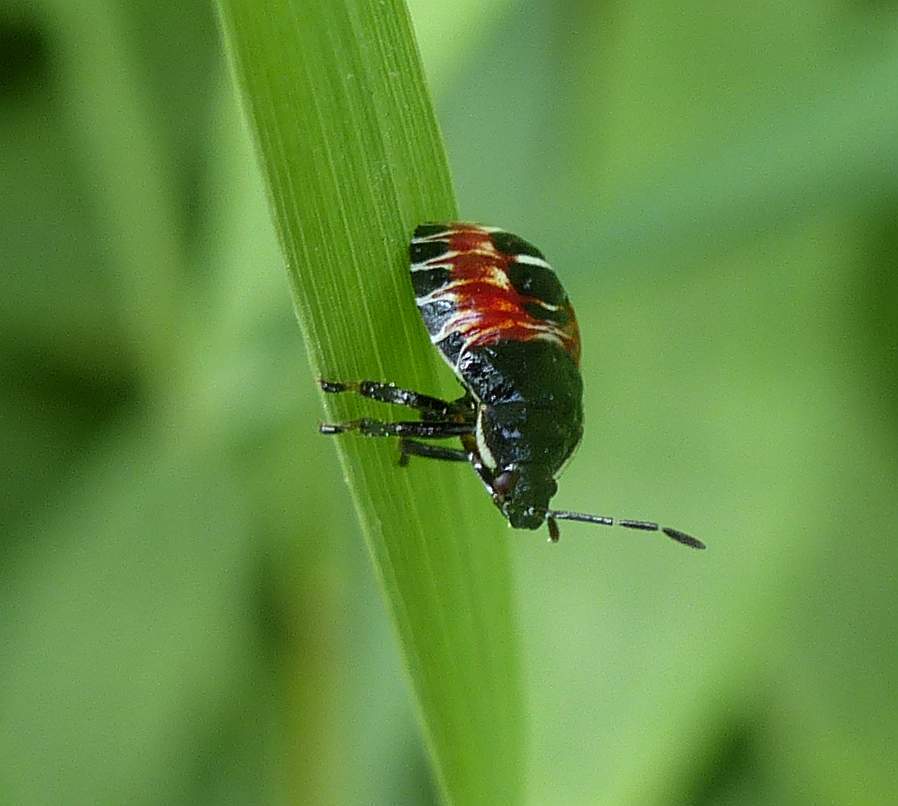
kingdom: Animalia
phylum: Arthropoda
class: Insecta
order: Hemiptera
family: Pentatomidae
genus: Podisus
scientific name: Podisus placidus
